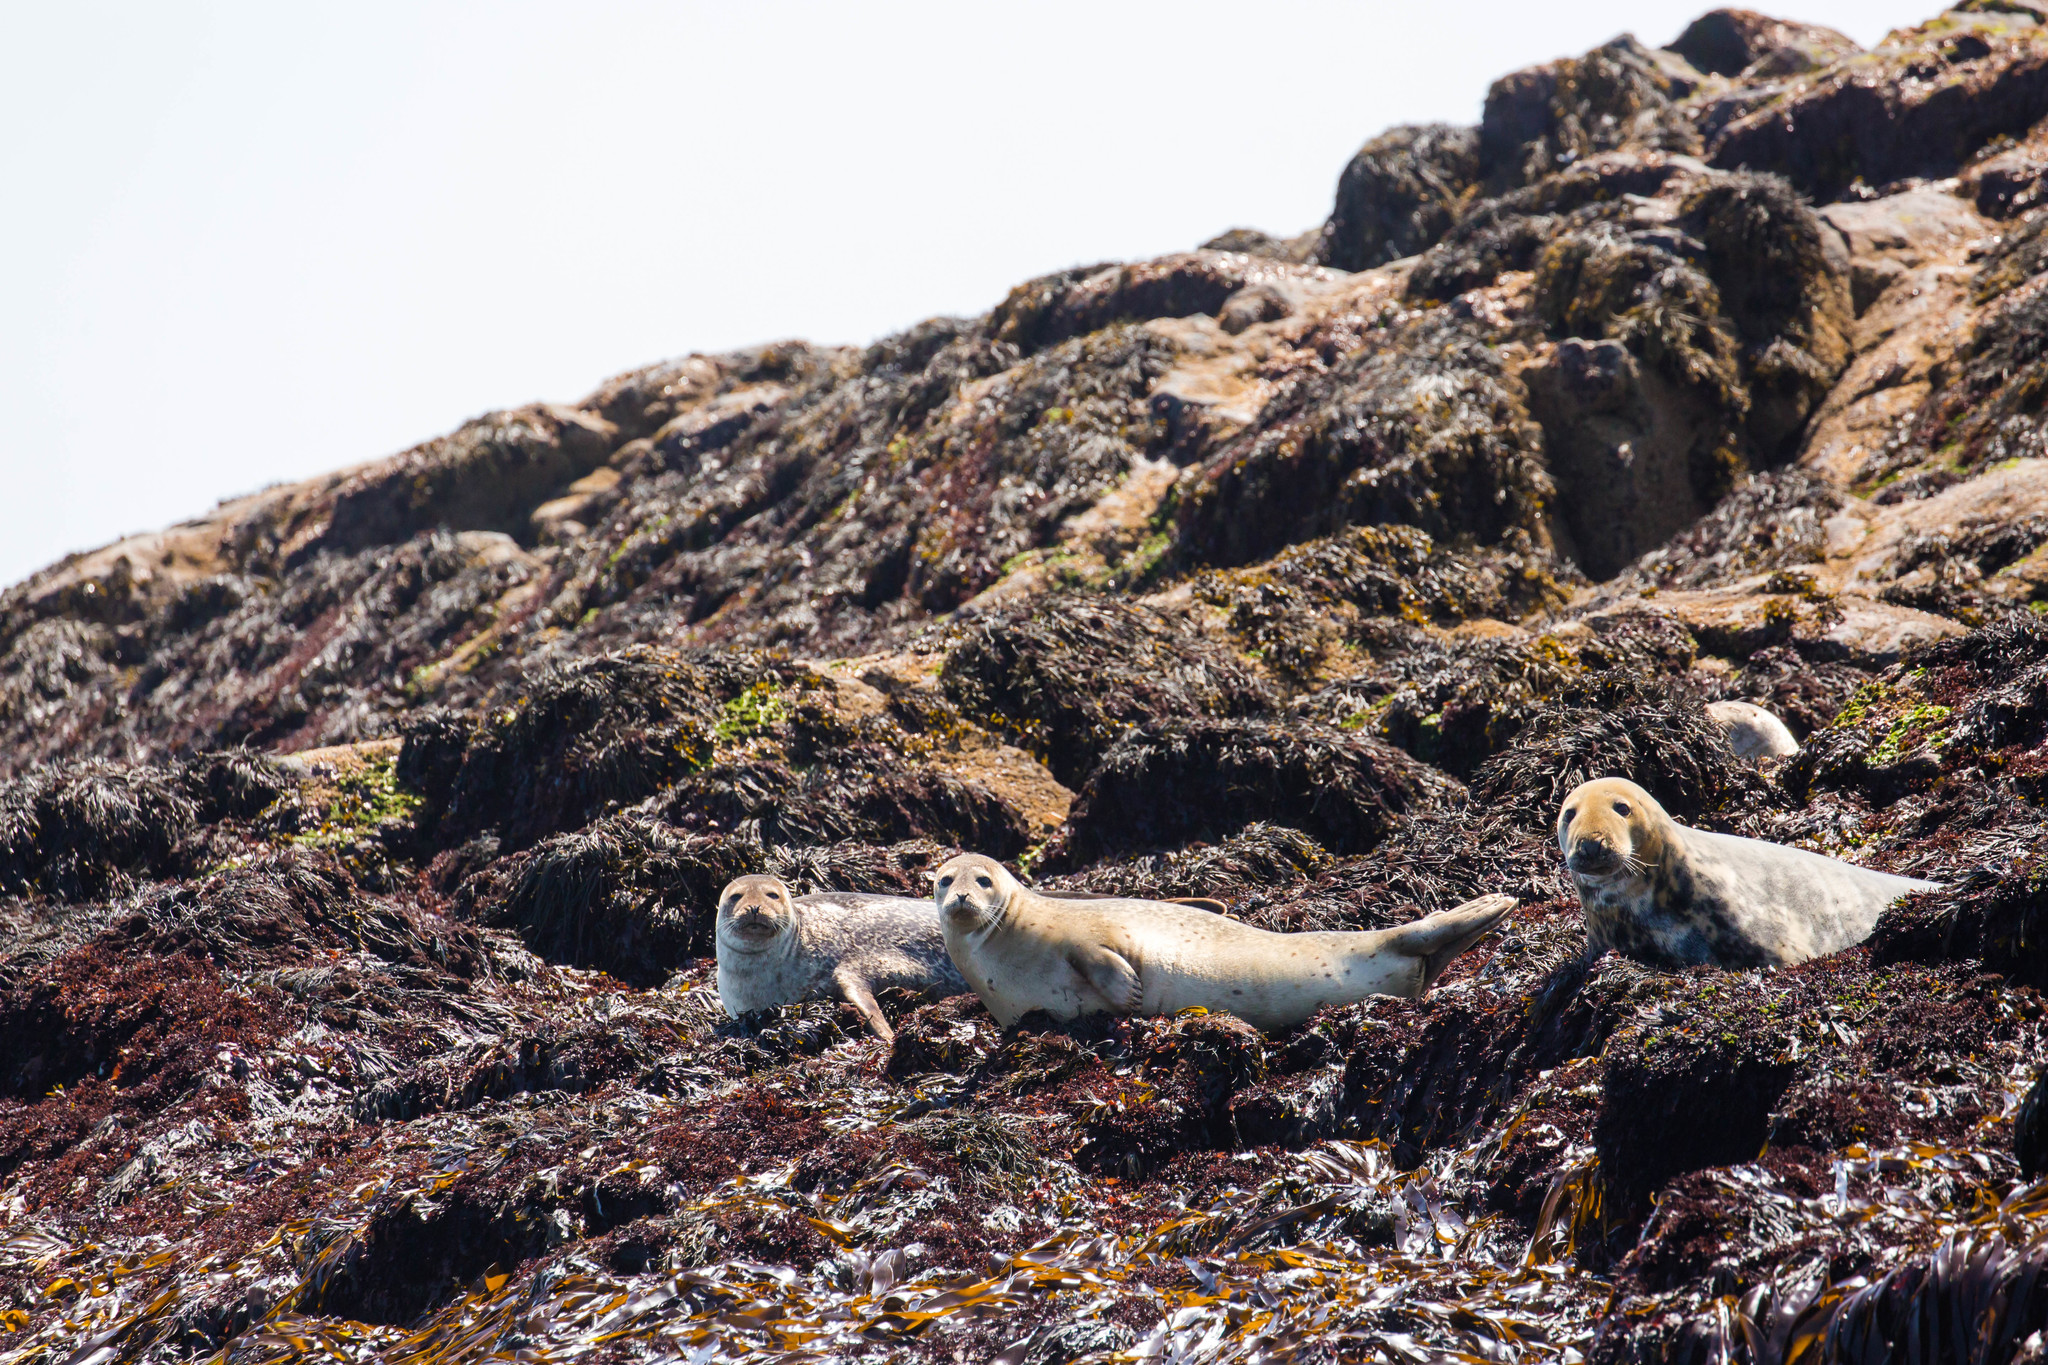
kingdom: Animalia
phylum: Chordata
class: Mammalia
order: Carnivora
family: Phocidae
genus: Phoca
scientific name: Phoca vitulina
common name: Harbor seal
